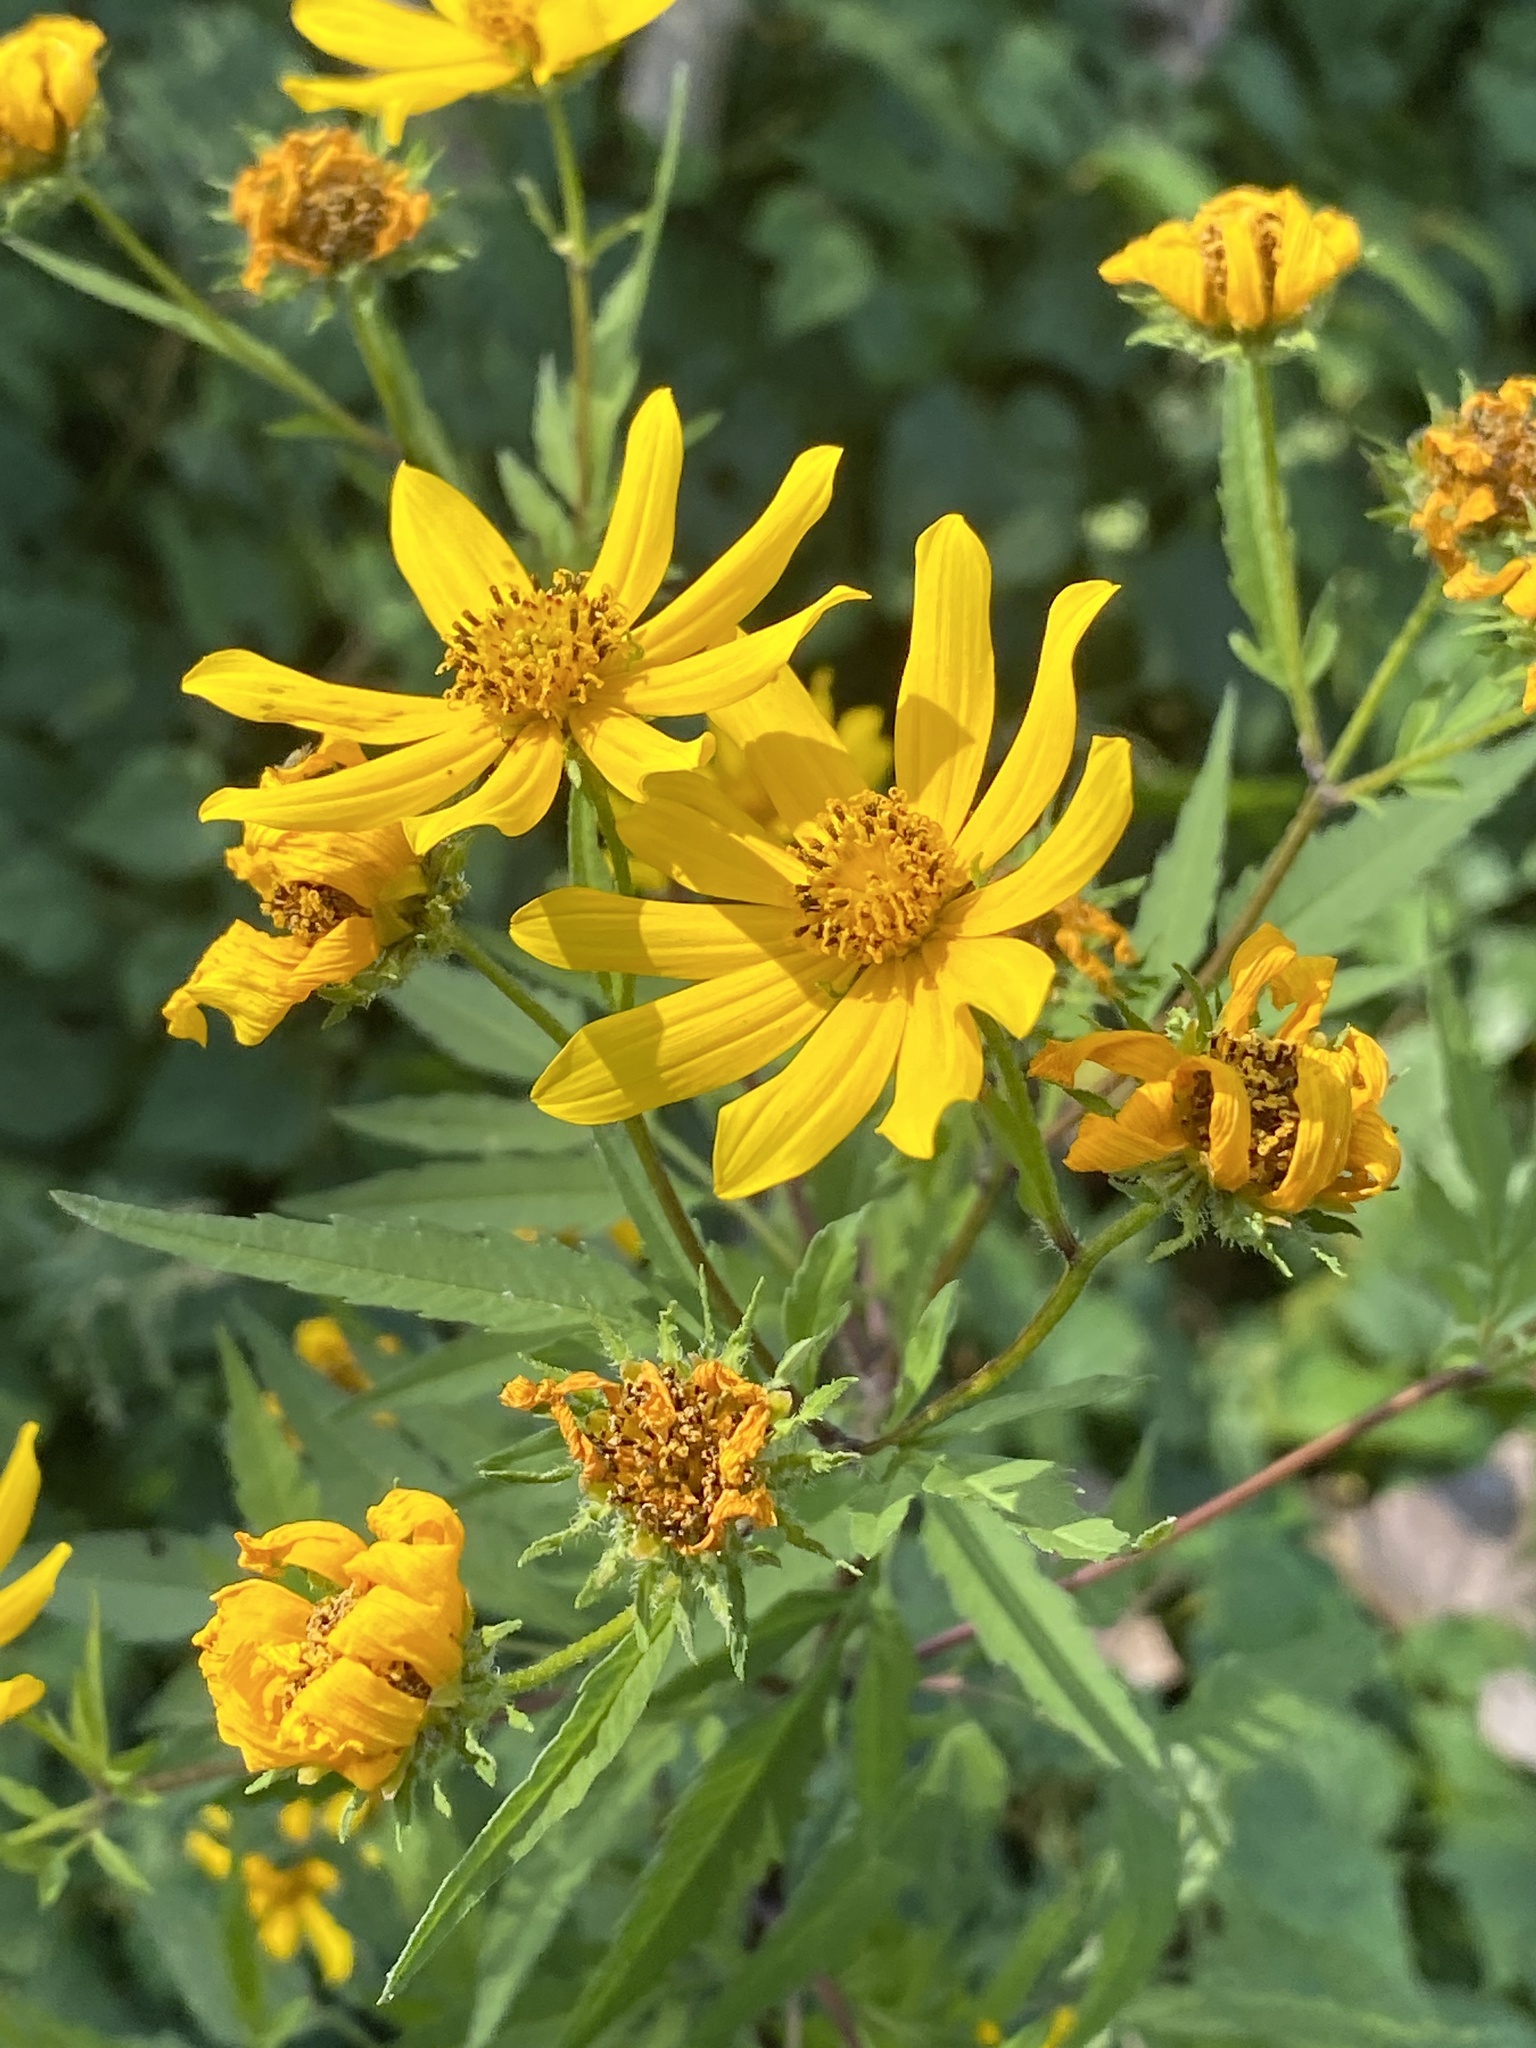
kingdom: Plantae
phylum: Tracheophyta
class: Magnoliopsida
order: Asterales
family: Asteraceae
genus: Bidens
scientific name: Bidens polylepis
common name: Awnless beggarticks
